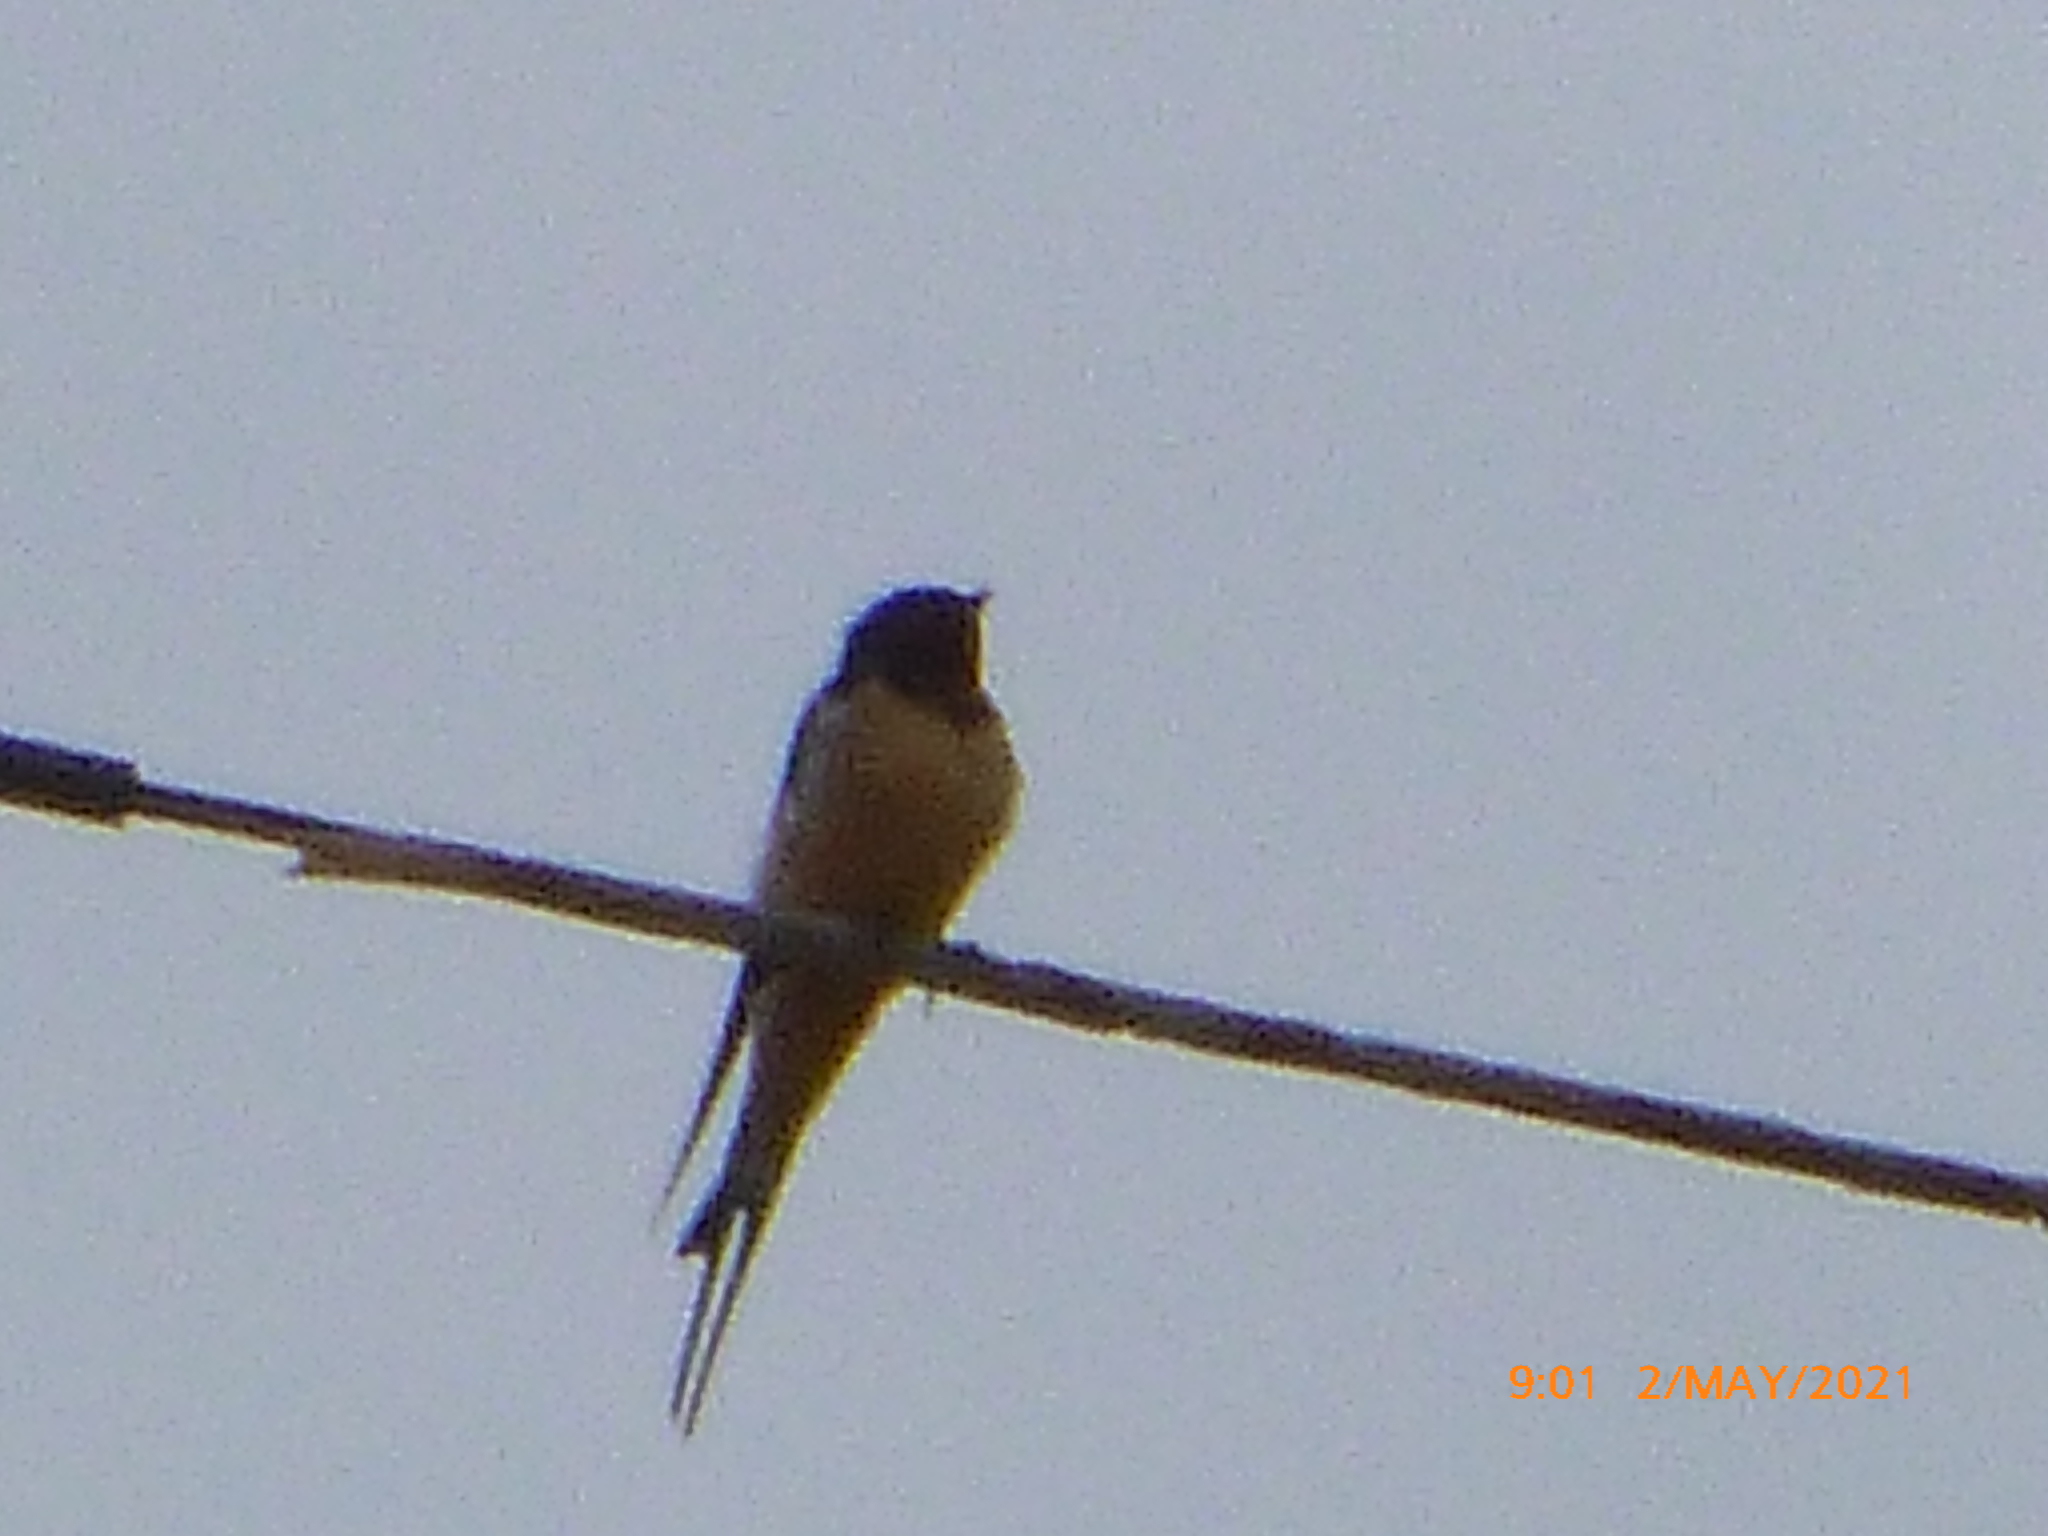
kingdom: Animalia
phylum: Chordata
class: Aves
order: Passeriformes
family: Hirundinidae
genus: Hirundo
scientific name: Hirundo rustica
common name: Barn swallow
